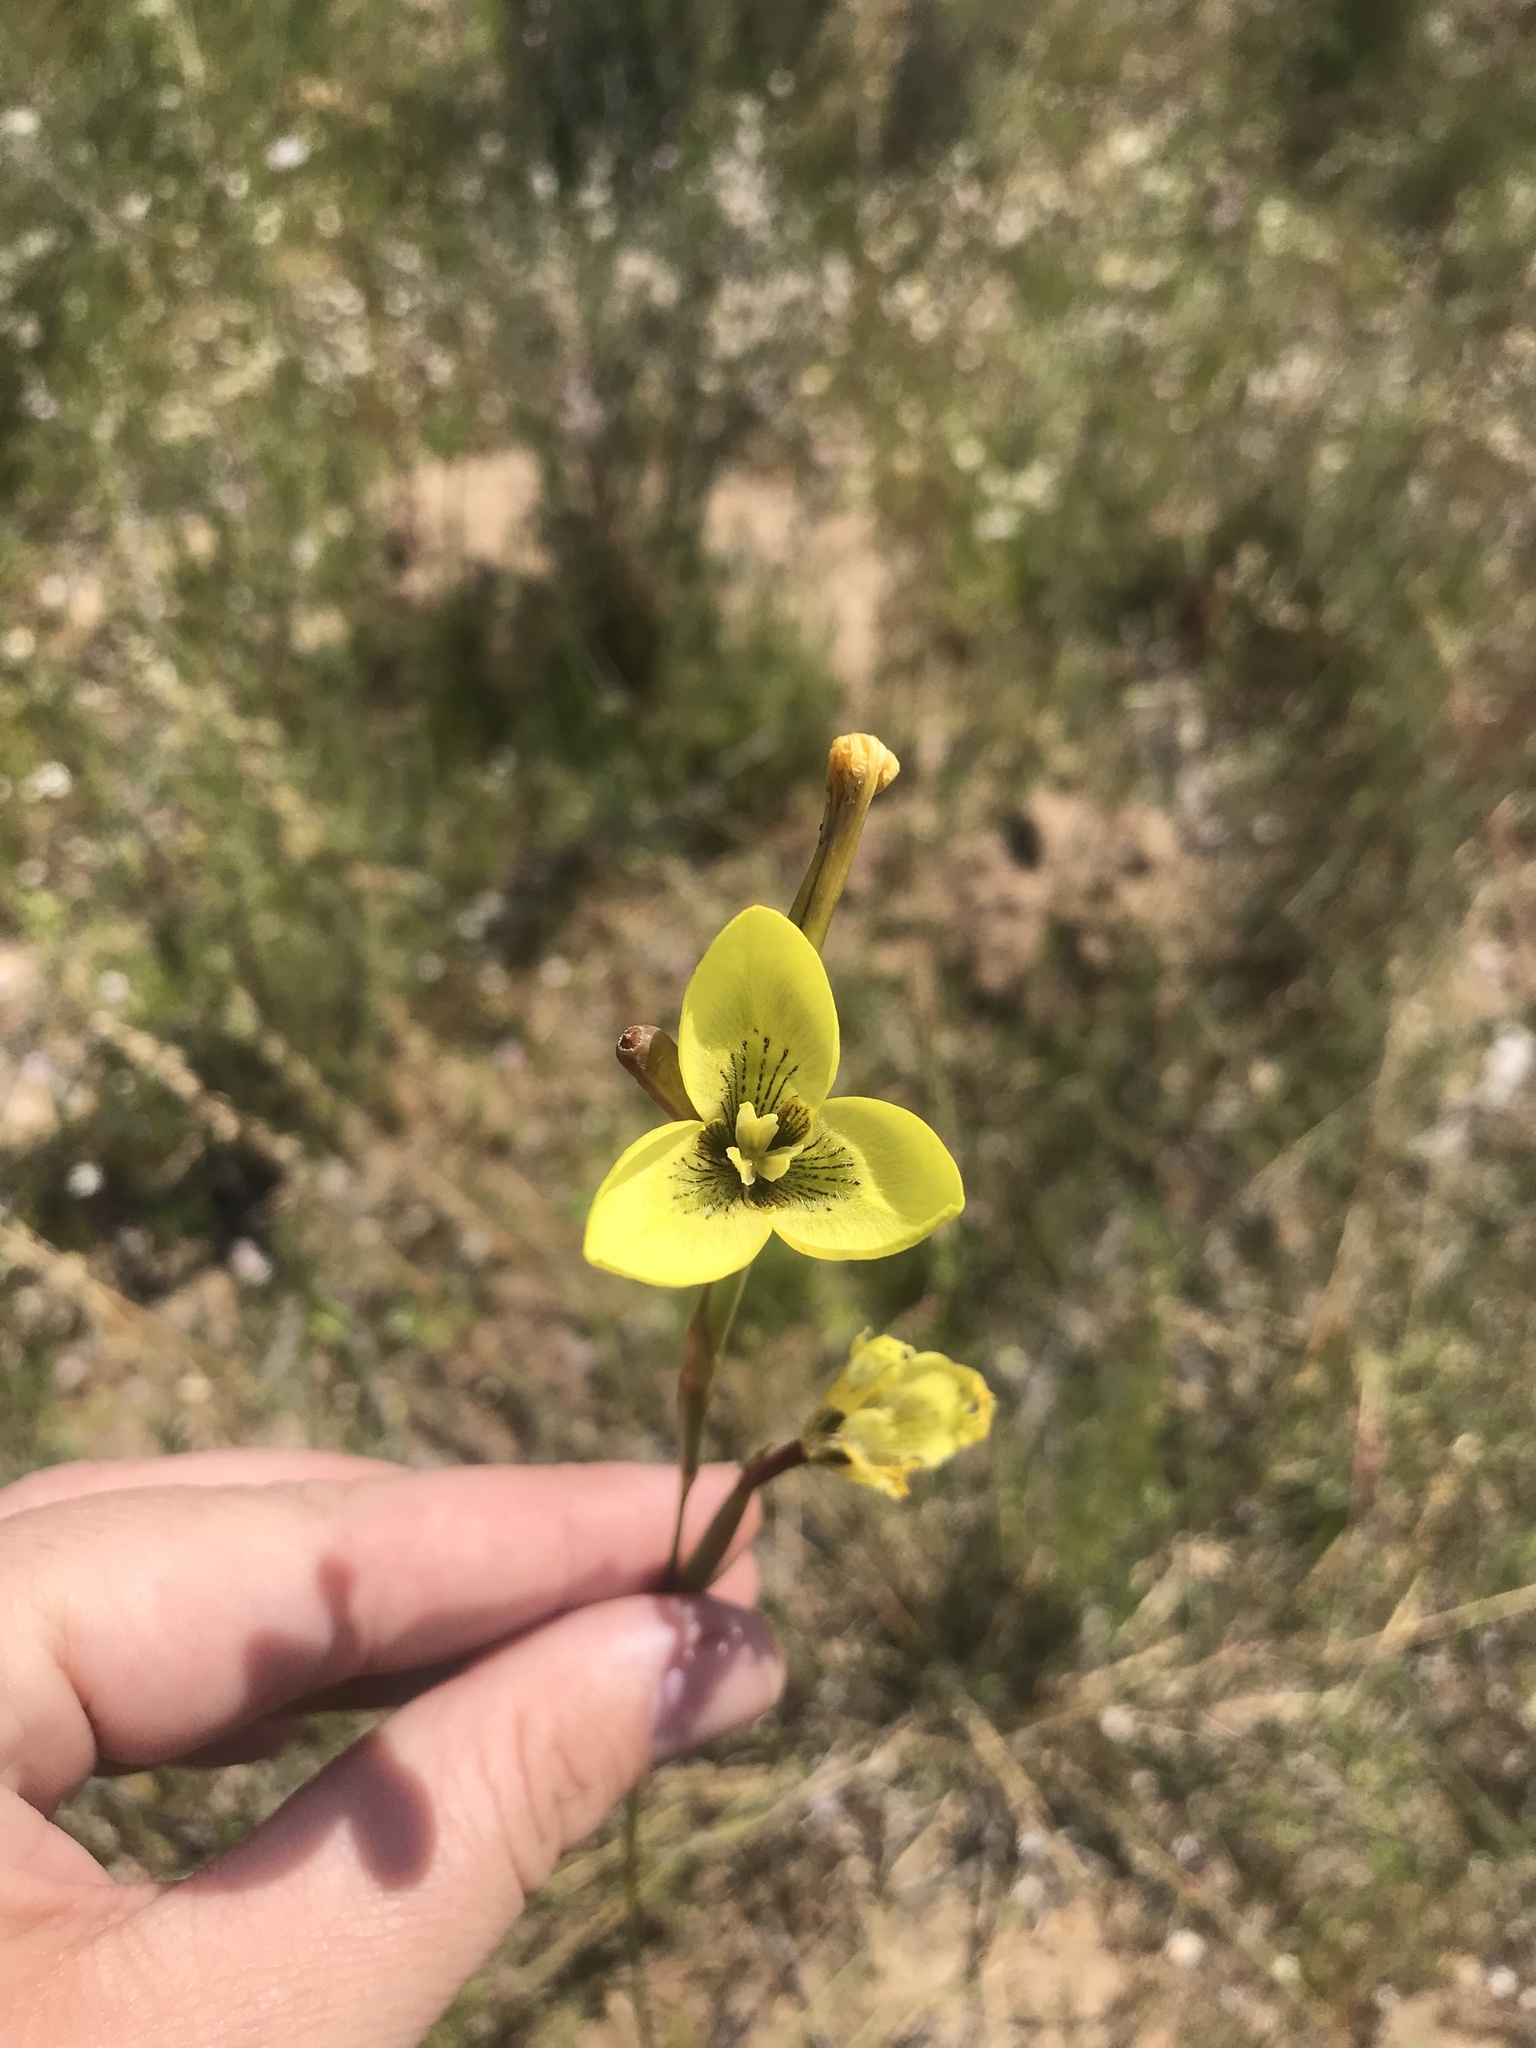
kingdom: Plantae
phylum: Tracheophyta
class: Liliopsida
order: Asparagales
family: Iridaceae
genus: Moraea
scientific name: Moraea bellendenii
